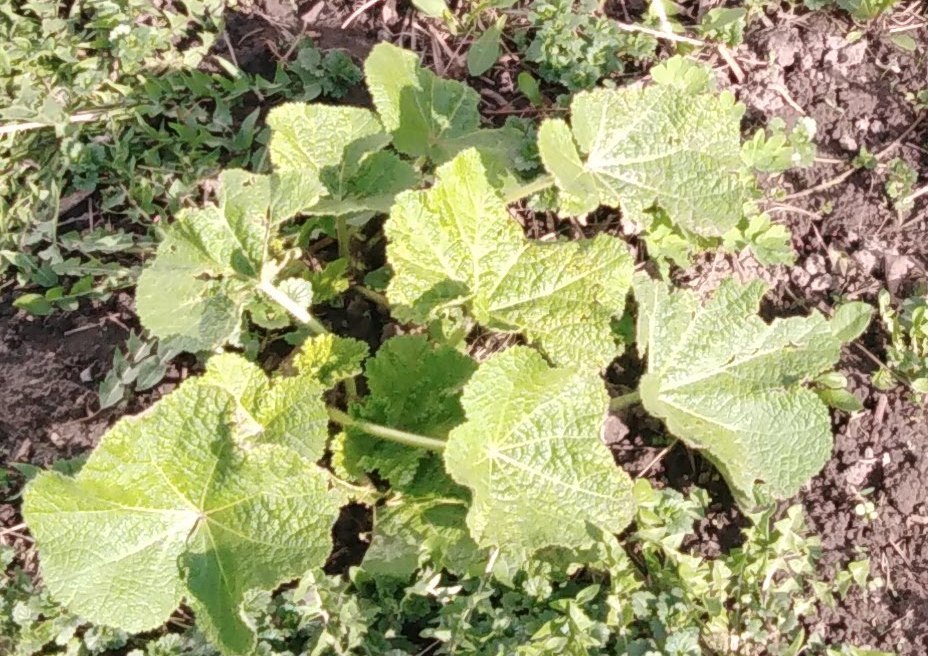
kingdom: Plantae
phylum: Tracheophyta
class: Magnoliopsida
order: Malvales
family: Malvaceae
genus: Malva
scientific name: Malva thuringiaca
